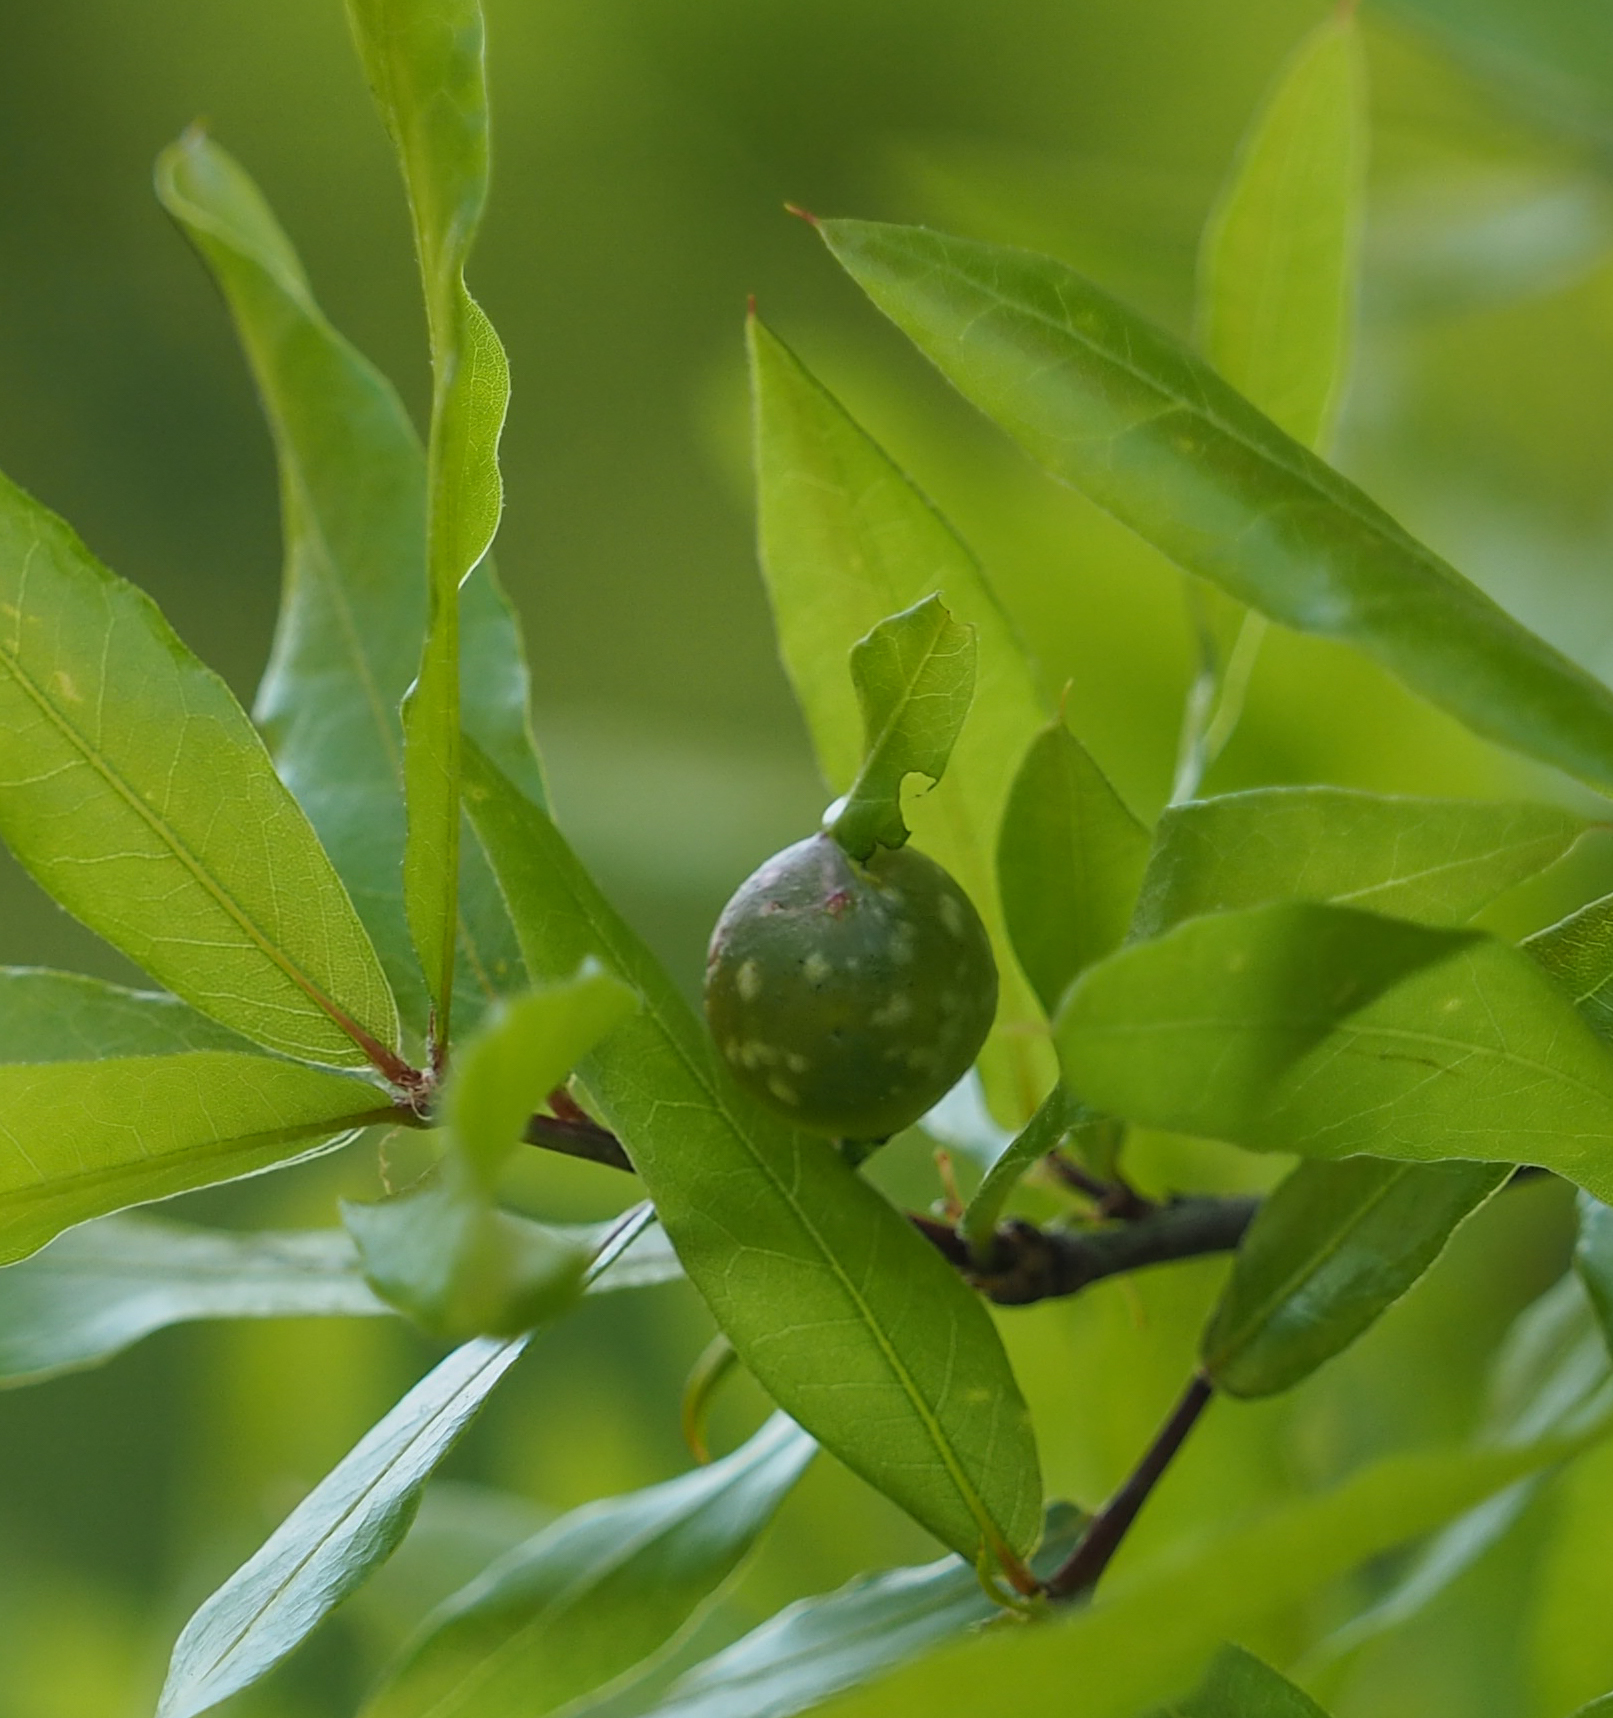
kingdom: Animalia
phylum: Arthropoda
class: Insecta
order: Hymenoptera
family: Cynipidae
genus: Dryocosmus
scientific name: Dryocosmus
